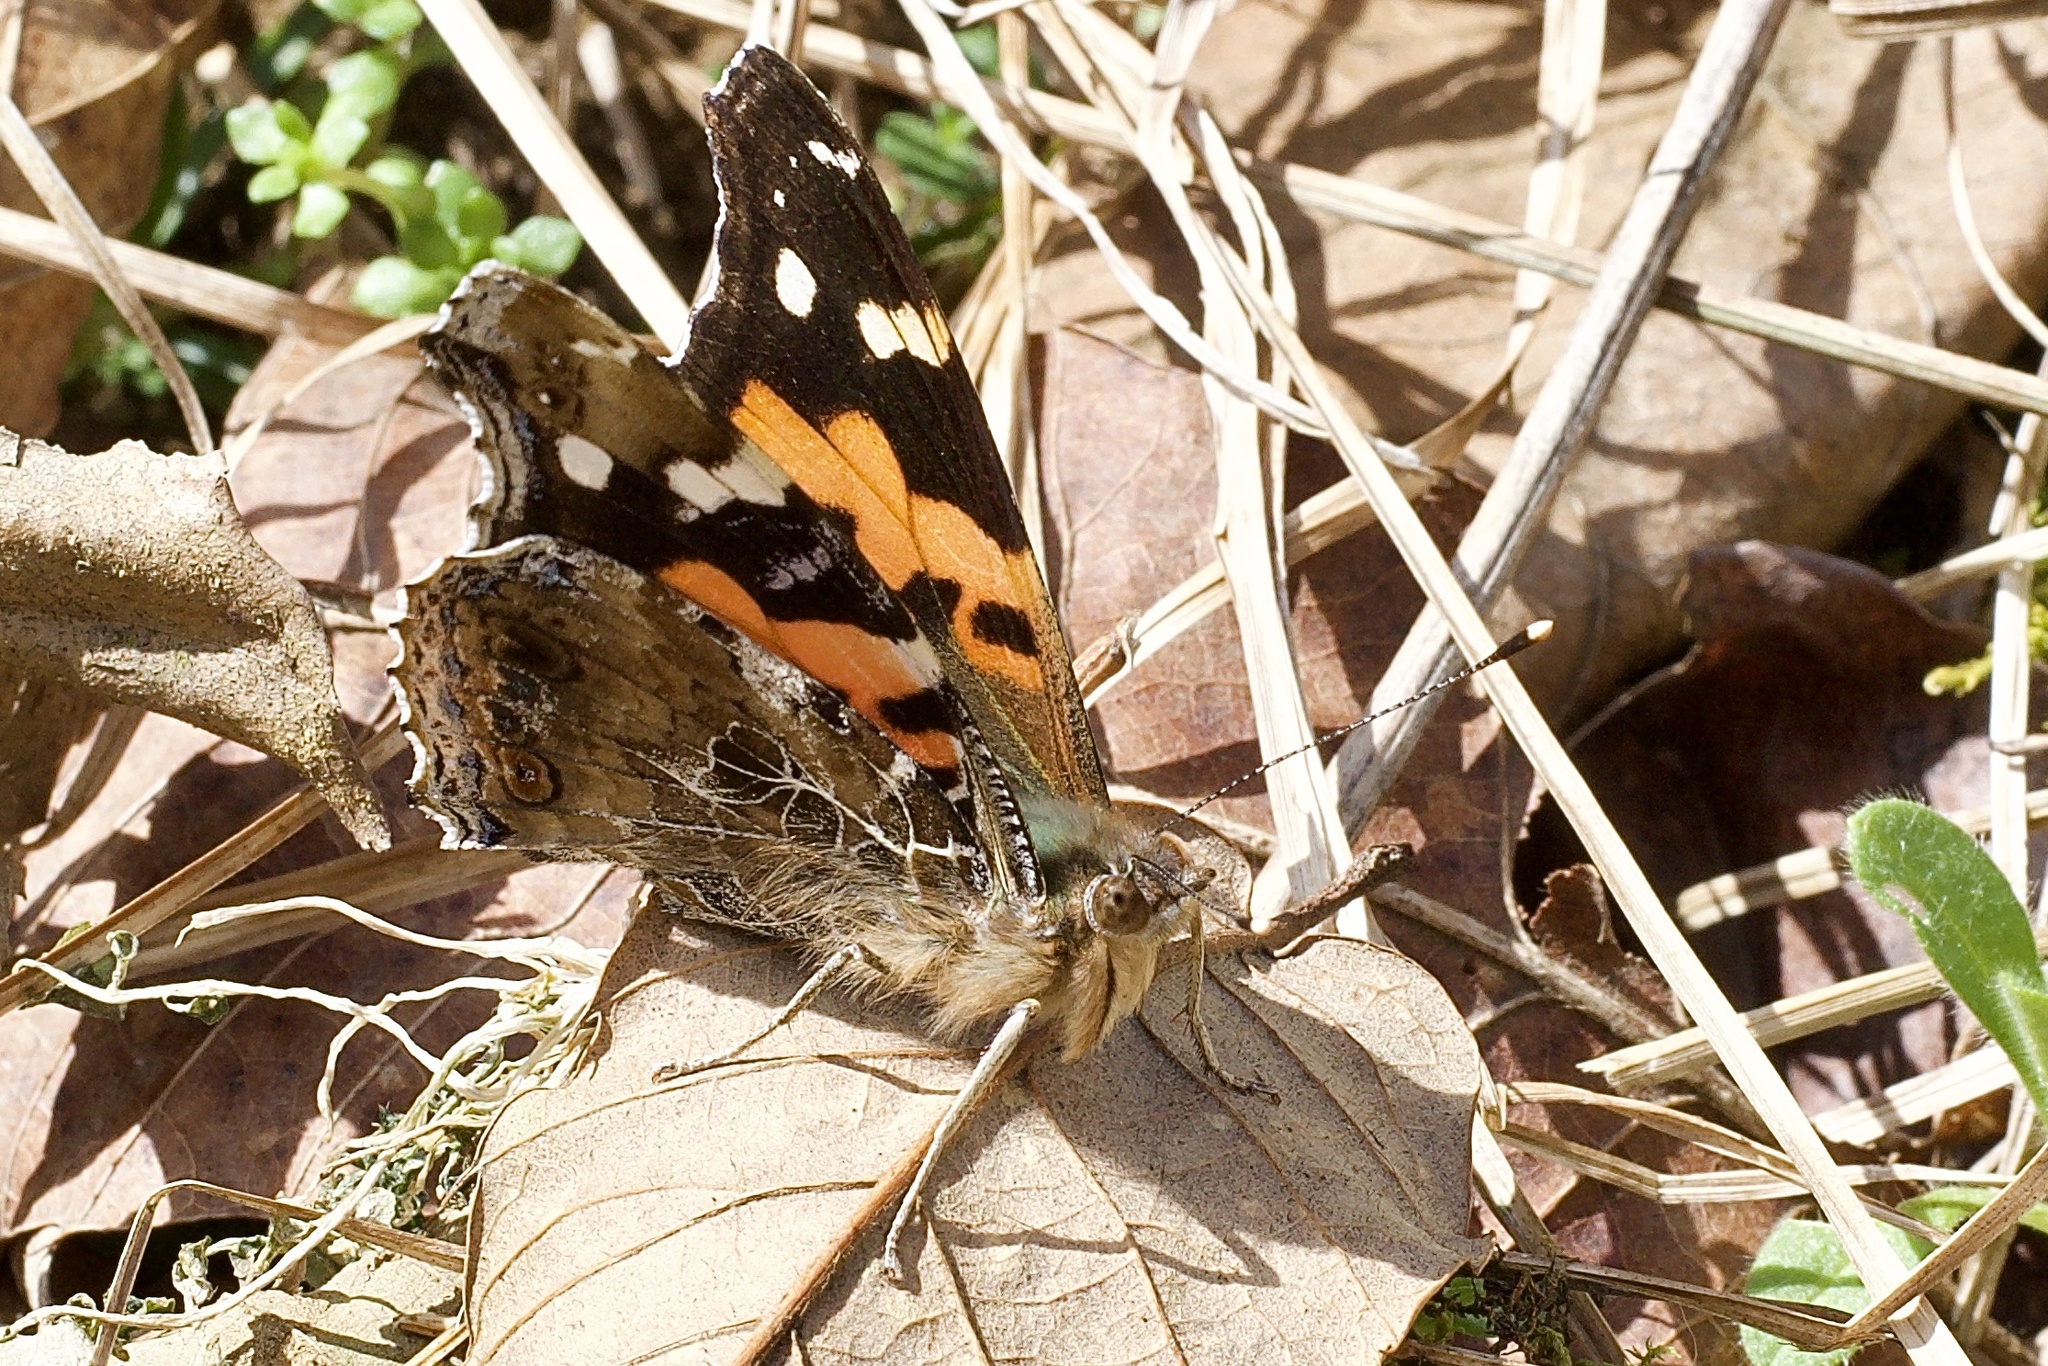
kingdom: Animalia
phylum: Arthropoda
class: Insecta
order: Lepidoptera
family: Nymphalidae
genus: Vanessa
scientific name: Vanessa indica
